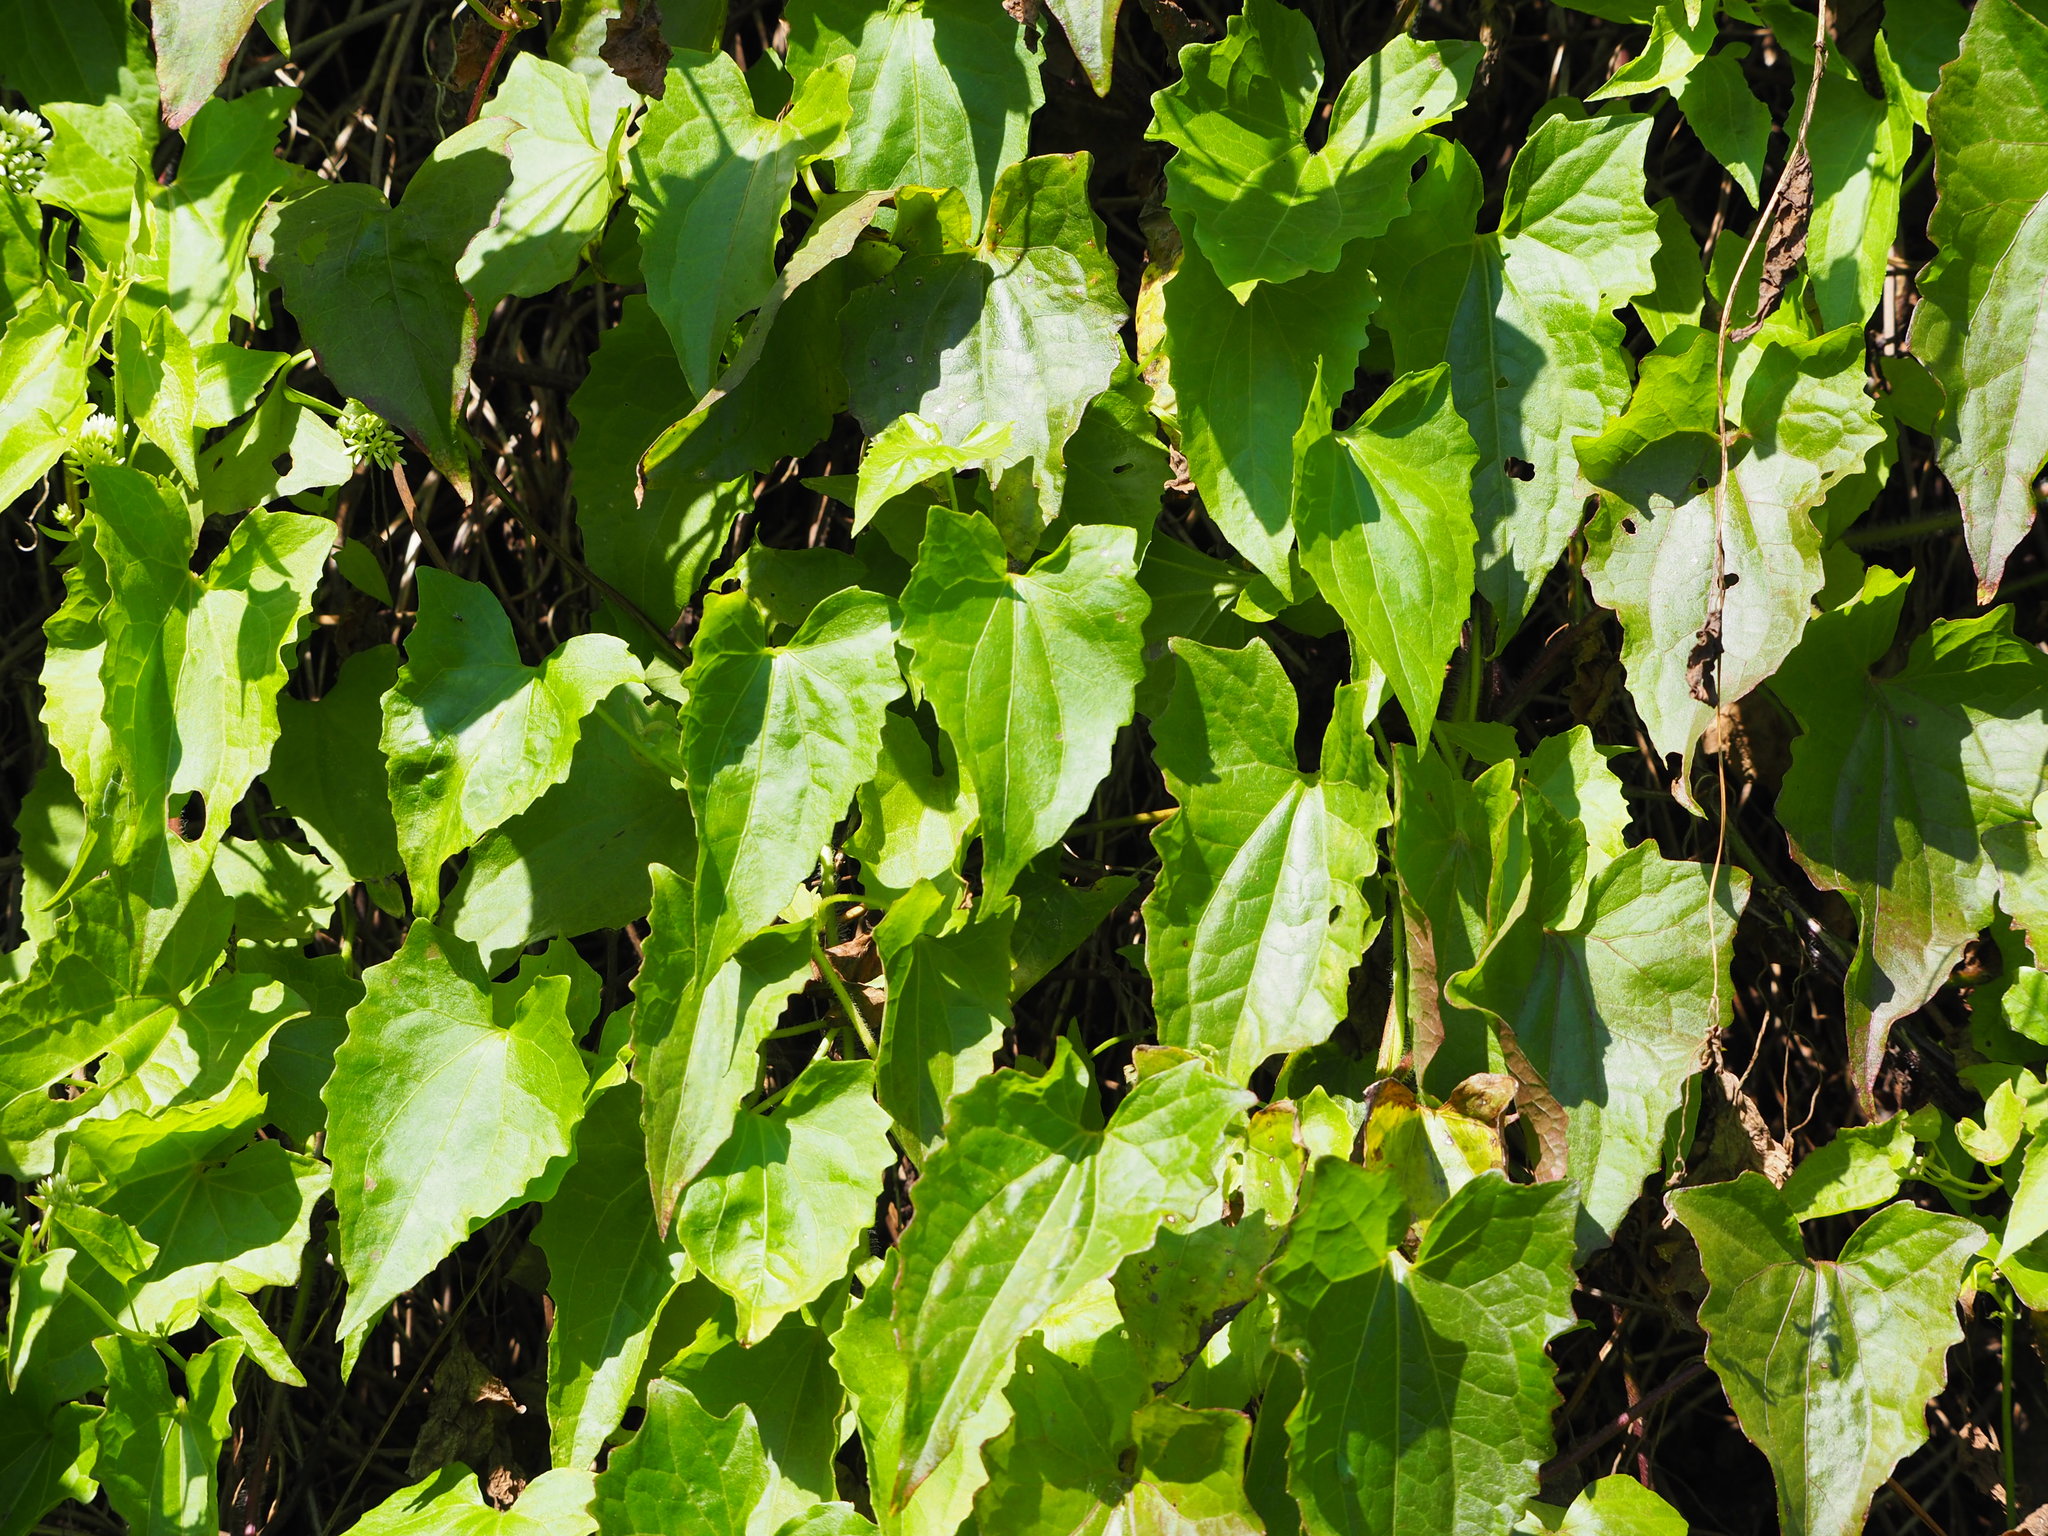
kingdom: Plantae
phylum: Tracheophyta
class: Magnoliopsida
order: Asterales
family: Asteraceae
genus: Mikania
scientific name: Mikania micrantha
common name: Mile-a-minute
